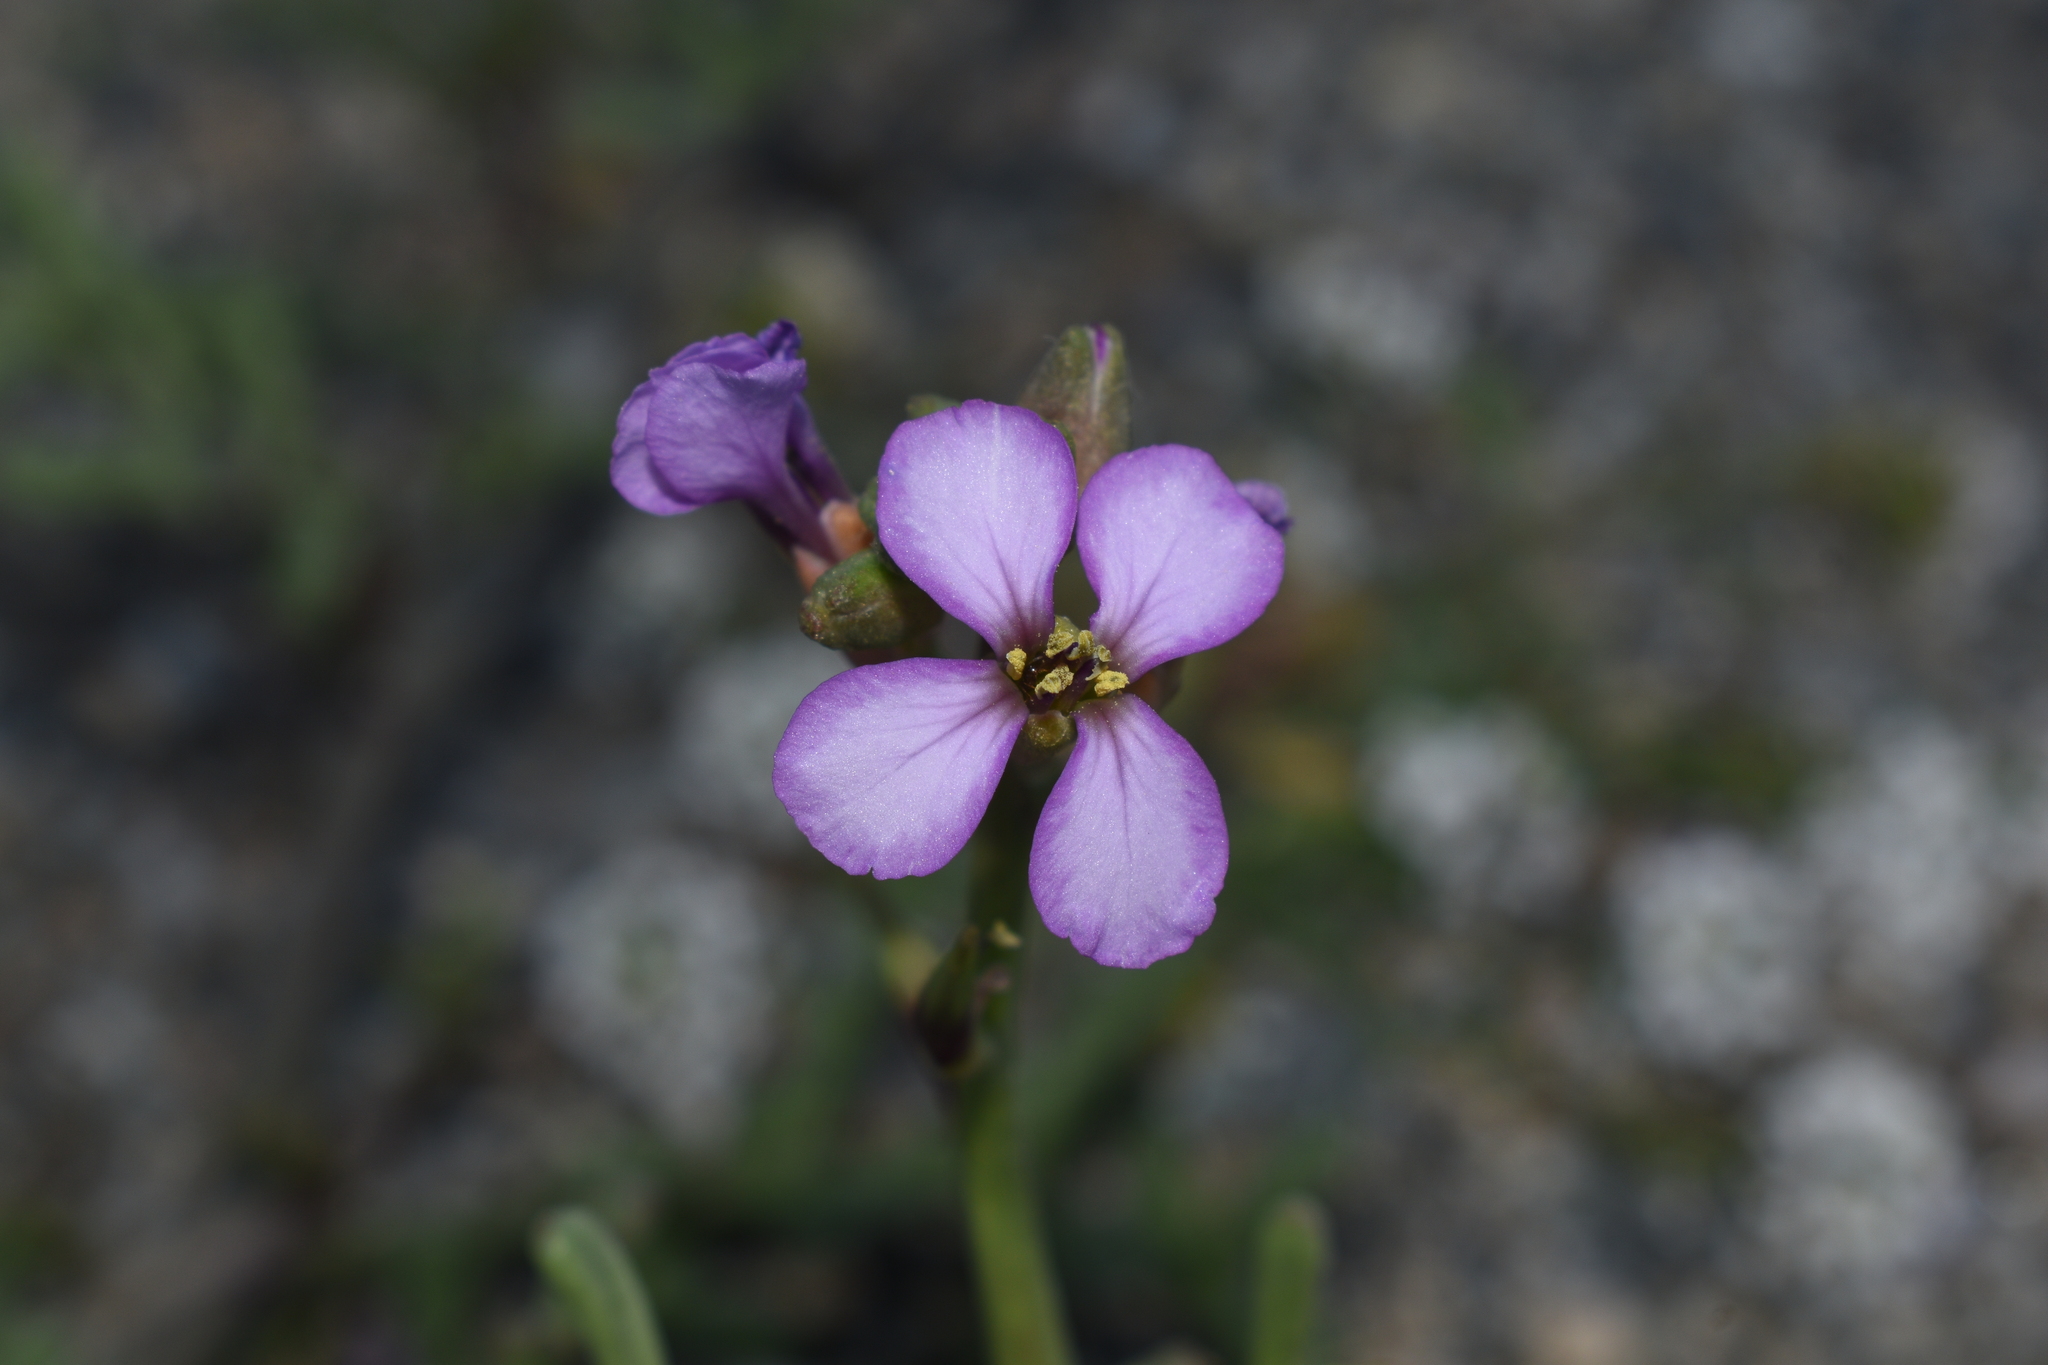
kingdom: Plantae
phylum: Tracheophyta
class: Magnoliopsida
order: Brassicales
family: Brassicaceae
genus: Cakile
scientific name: Cakile maritima
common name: Sea rocket
